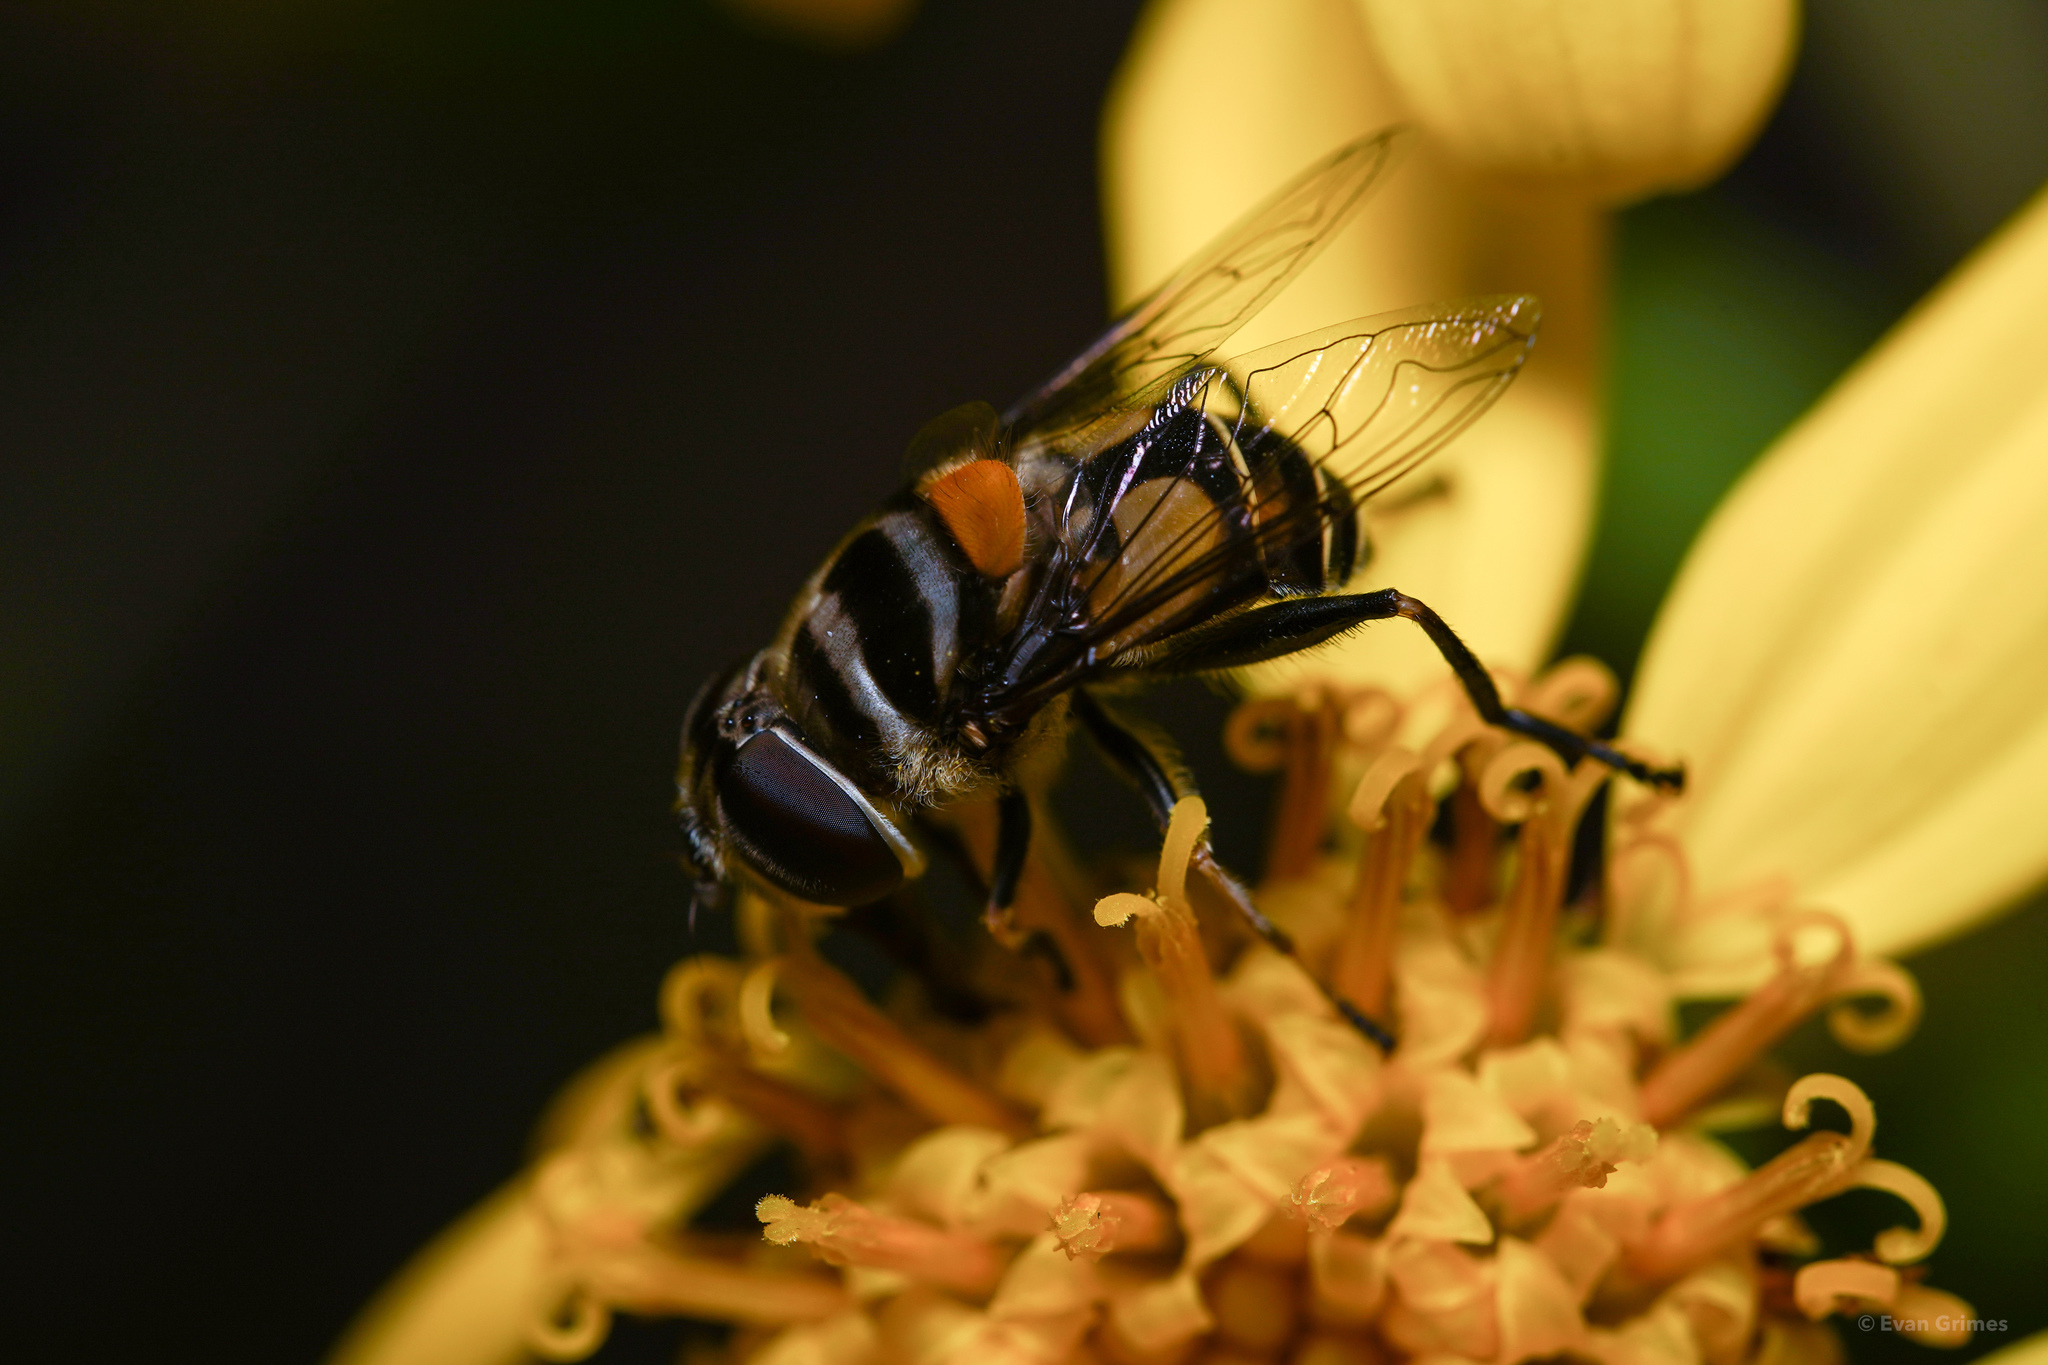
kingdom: Animalia
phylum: Arthropoda
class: Insecta
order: Diptera
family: Syrphidae
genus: Palpada
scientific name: Palpada agrorum
